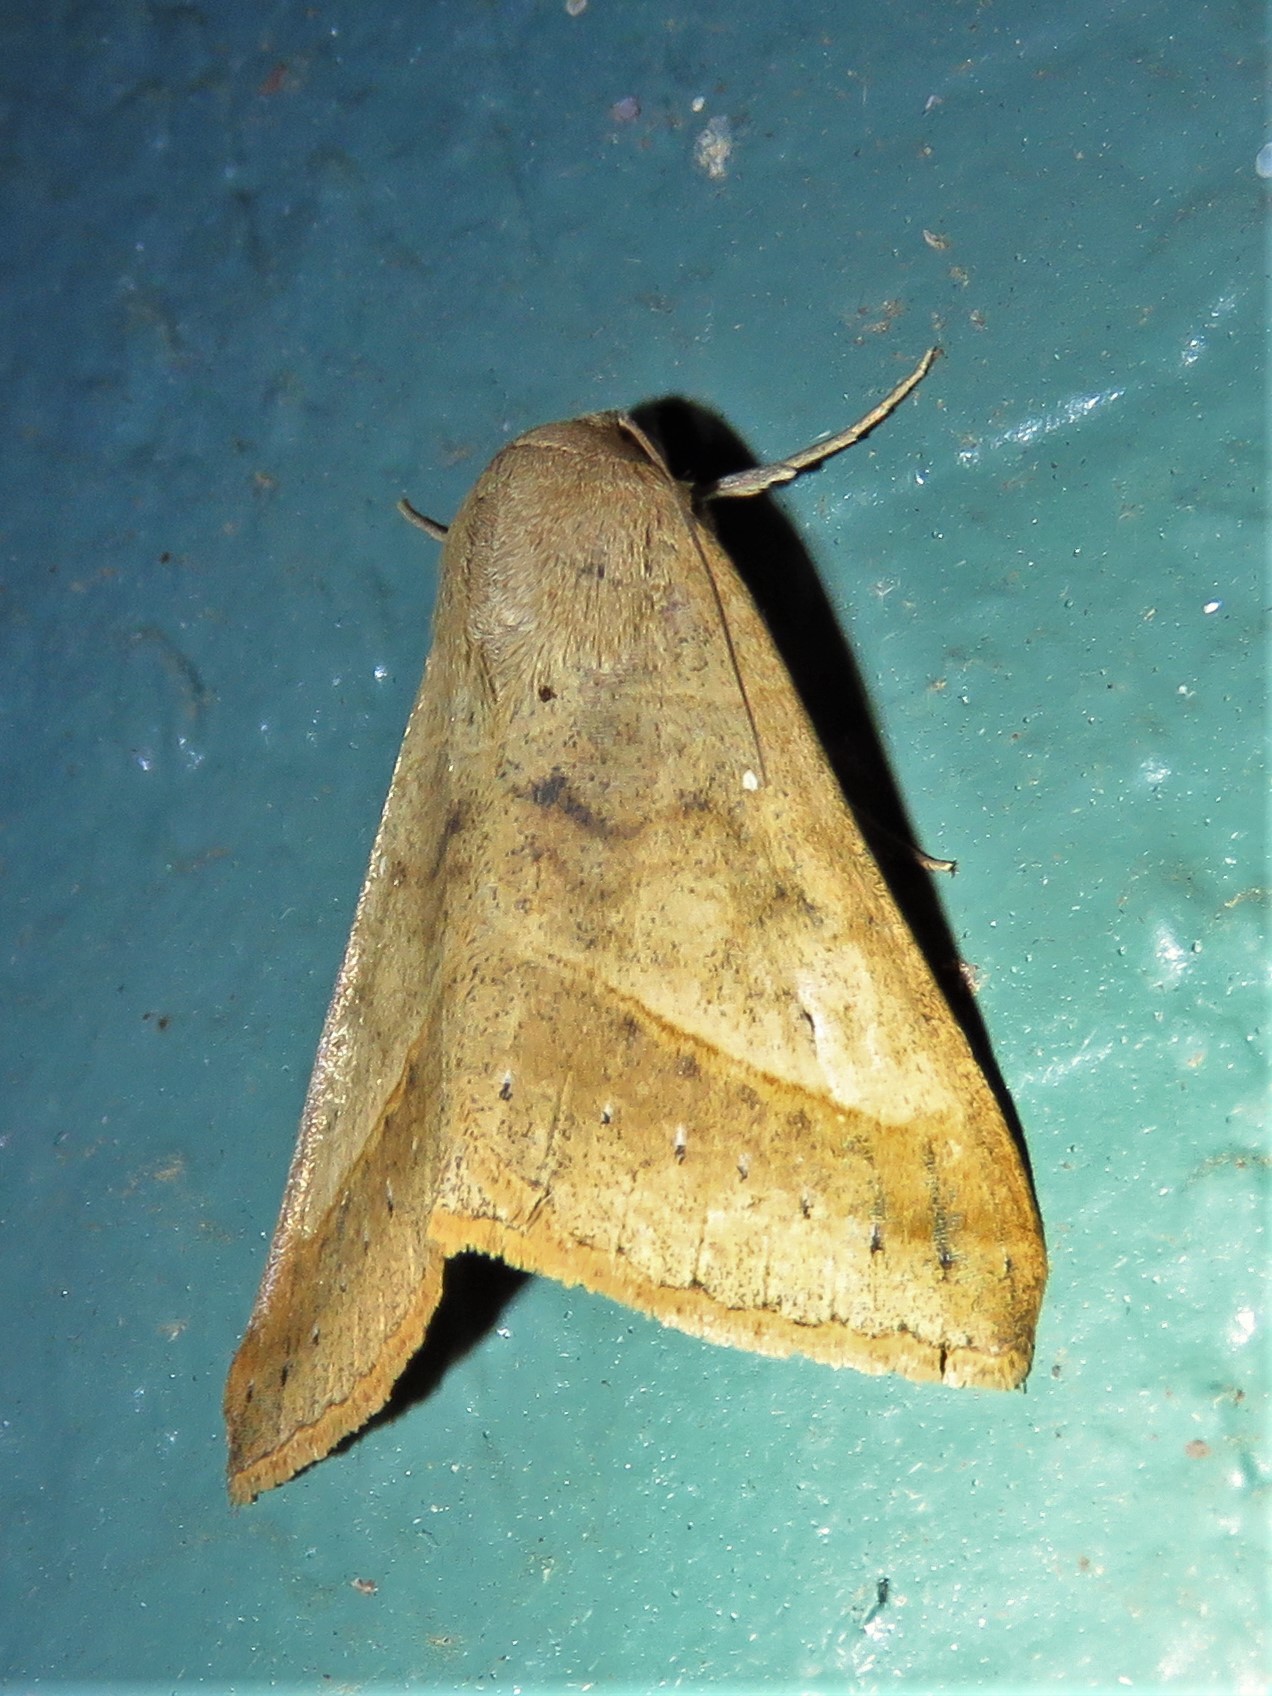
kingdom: Animalia
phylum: Arthropoda
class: Insecta
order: Lepidoptera
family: Erebidae
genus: Mocis
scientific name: Mocis marcida
